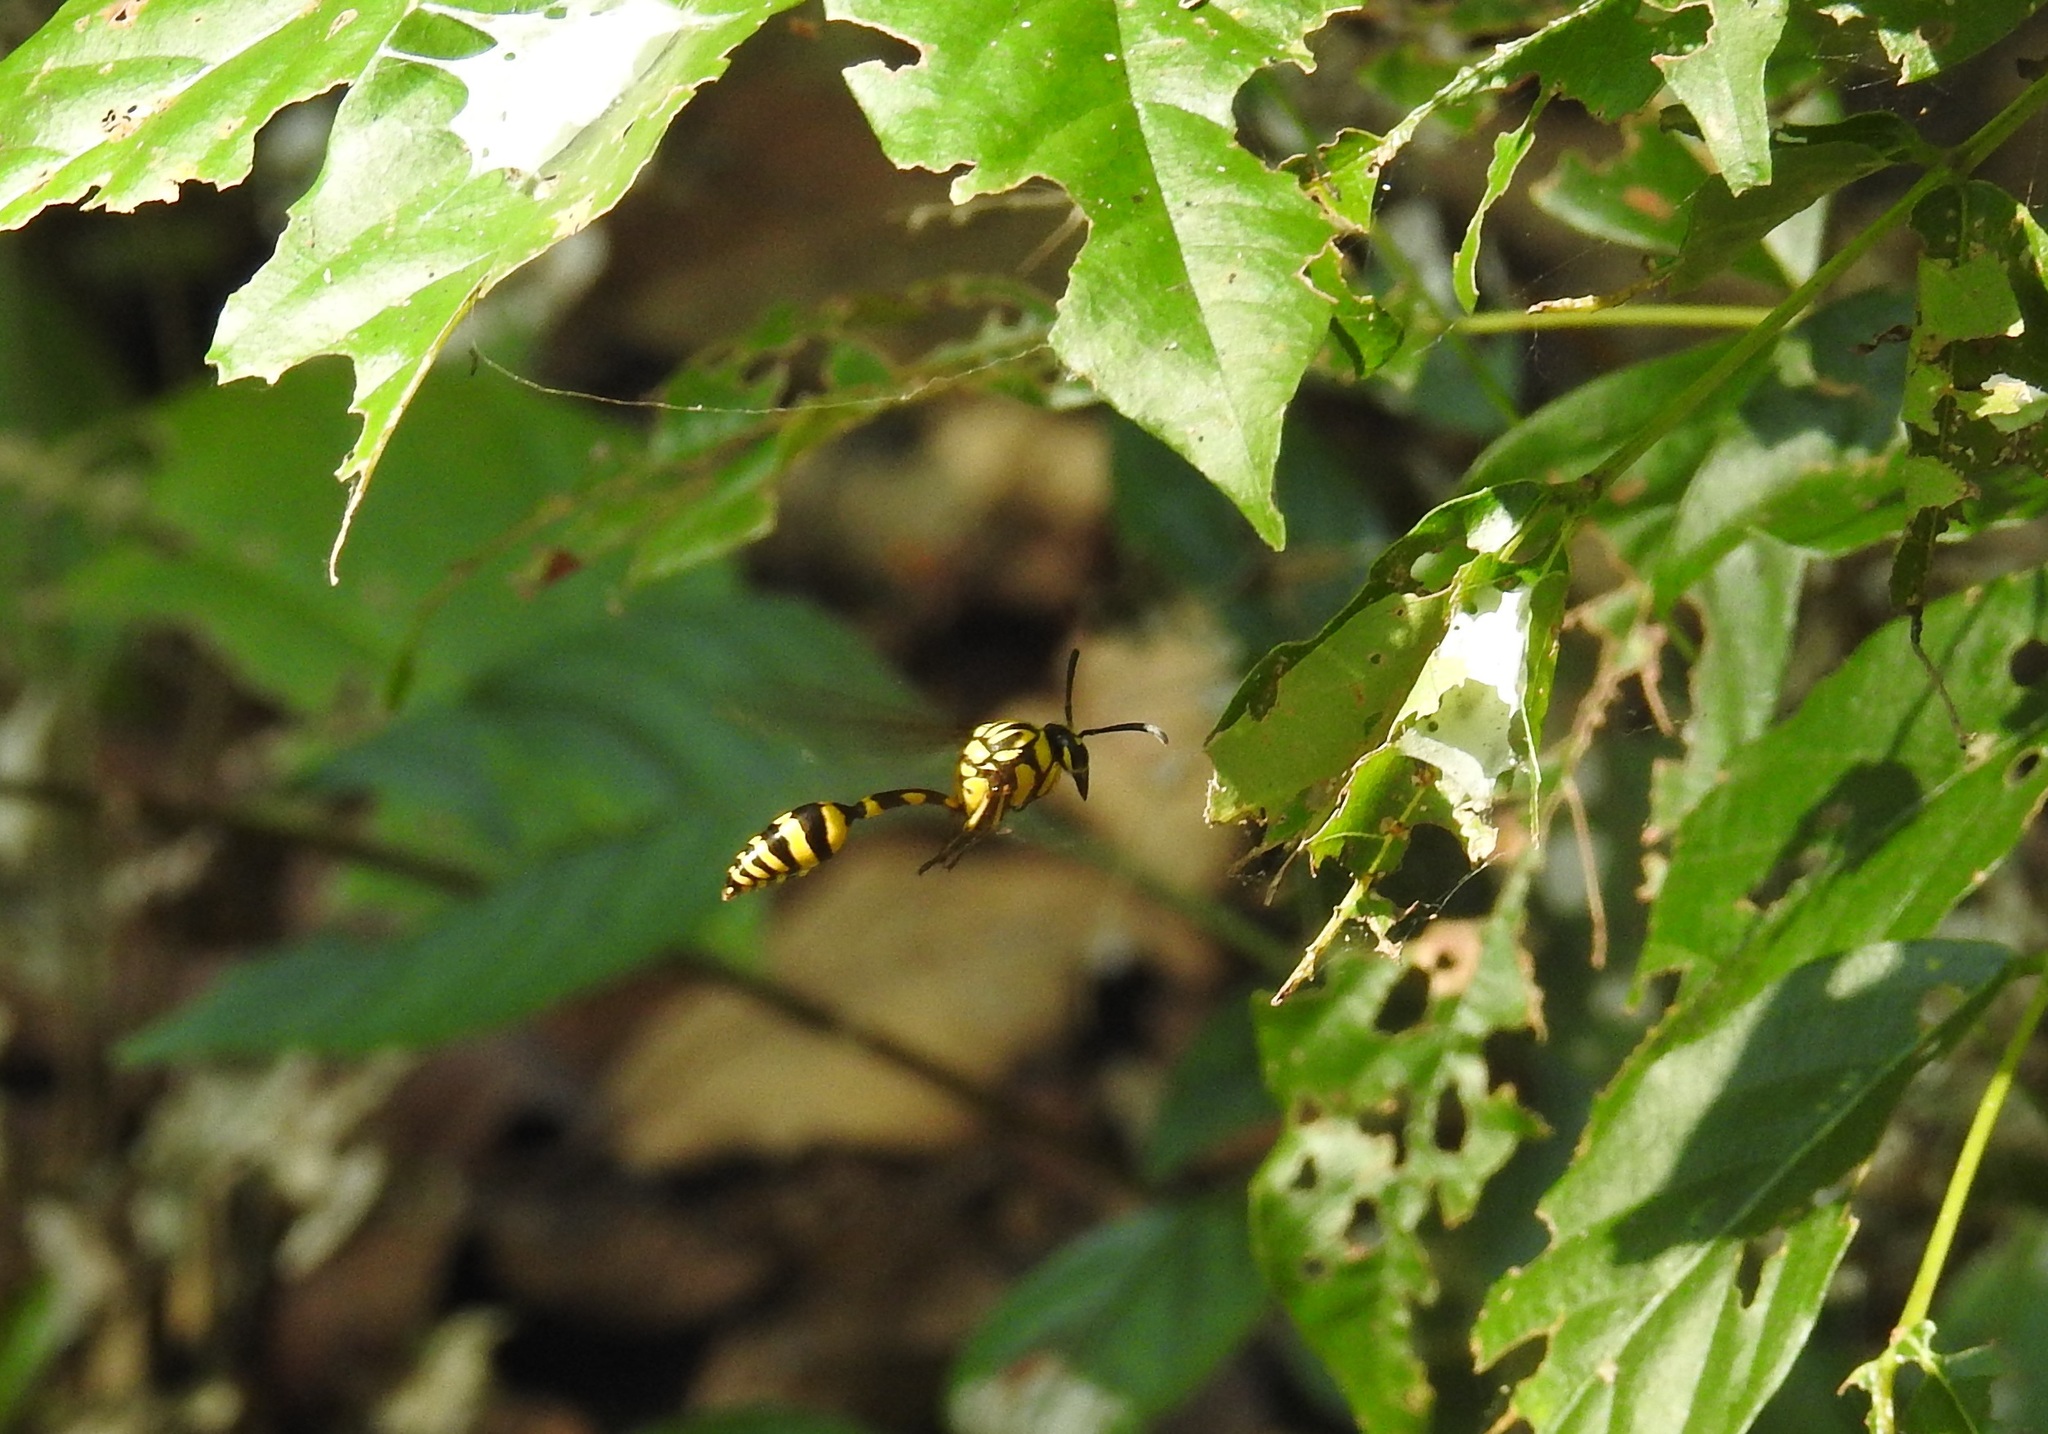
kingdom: Animalia
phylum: Arthropoda
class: Insecta
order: Hymenoptera
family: Eumenidae
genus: Phimenes
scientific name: Phimenes flavopictus
